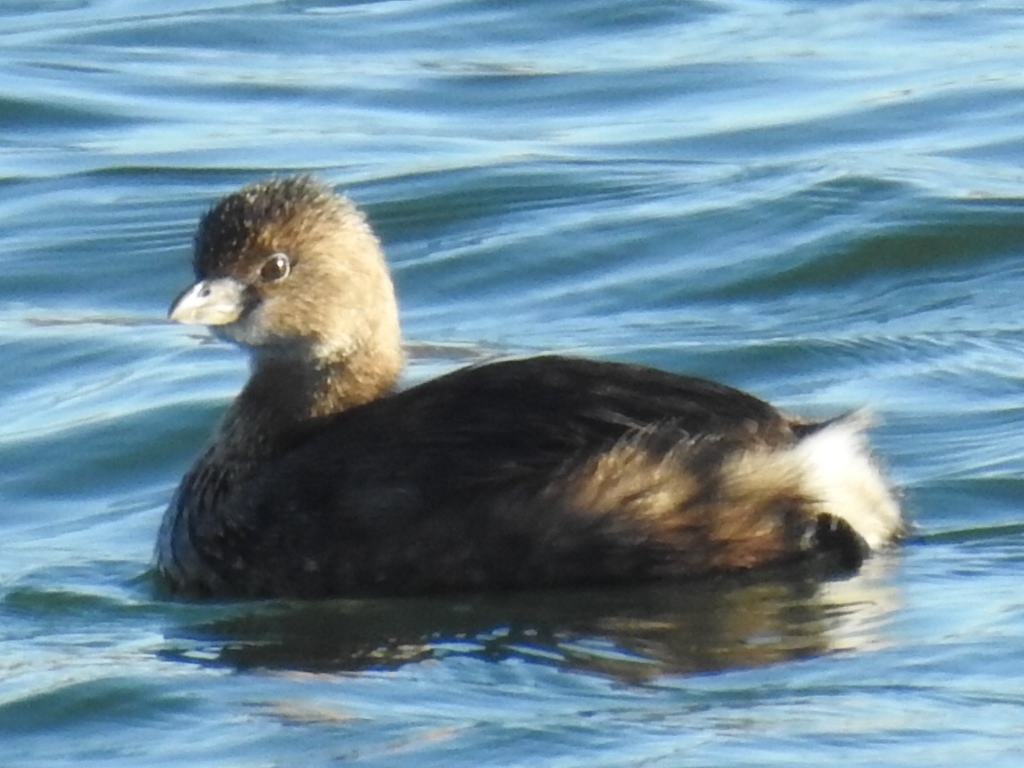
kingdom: Animalia
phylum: Chordata
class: Aves
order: Podicipediformes
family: Podicipedidae
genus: Podilymbus
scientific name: Podilymbus podiceps
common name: Pied-billed grebe
